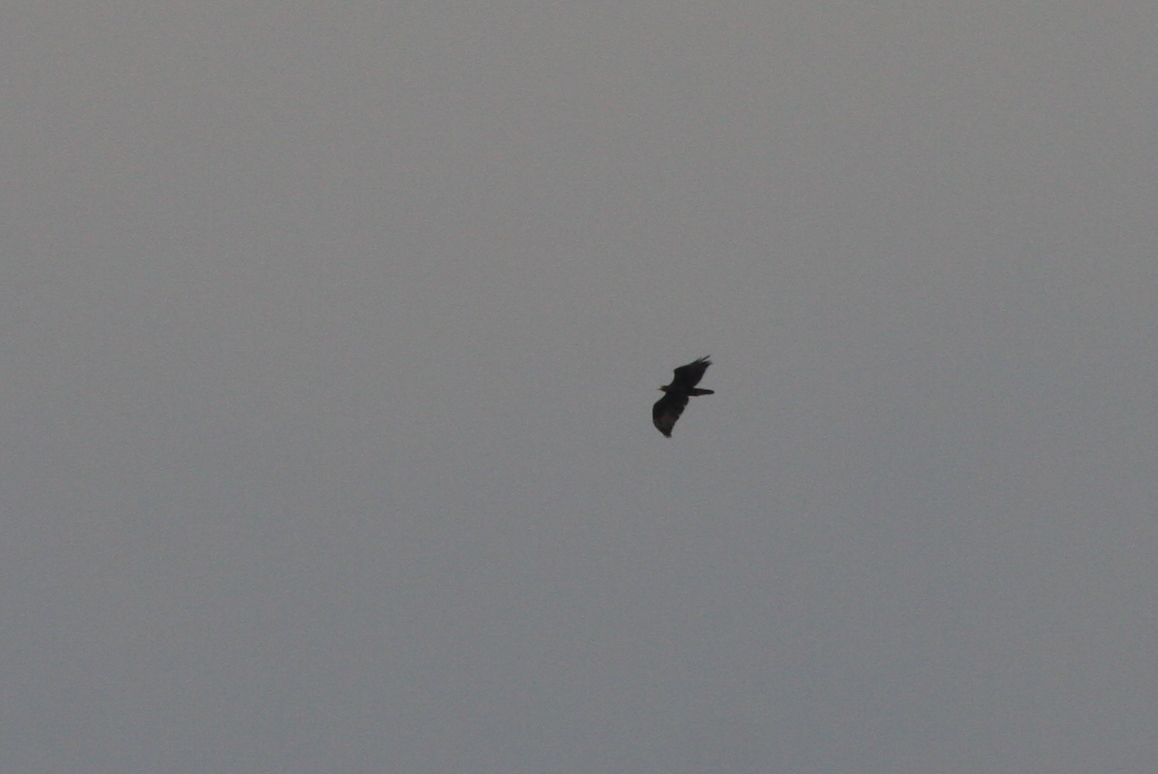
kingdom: Animalia
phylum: Chordata
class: Aves
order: Accipitriformes
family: Accipitridae
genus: Aquila
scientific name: Aquila verreauxii
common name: Verreaux's eagle
